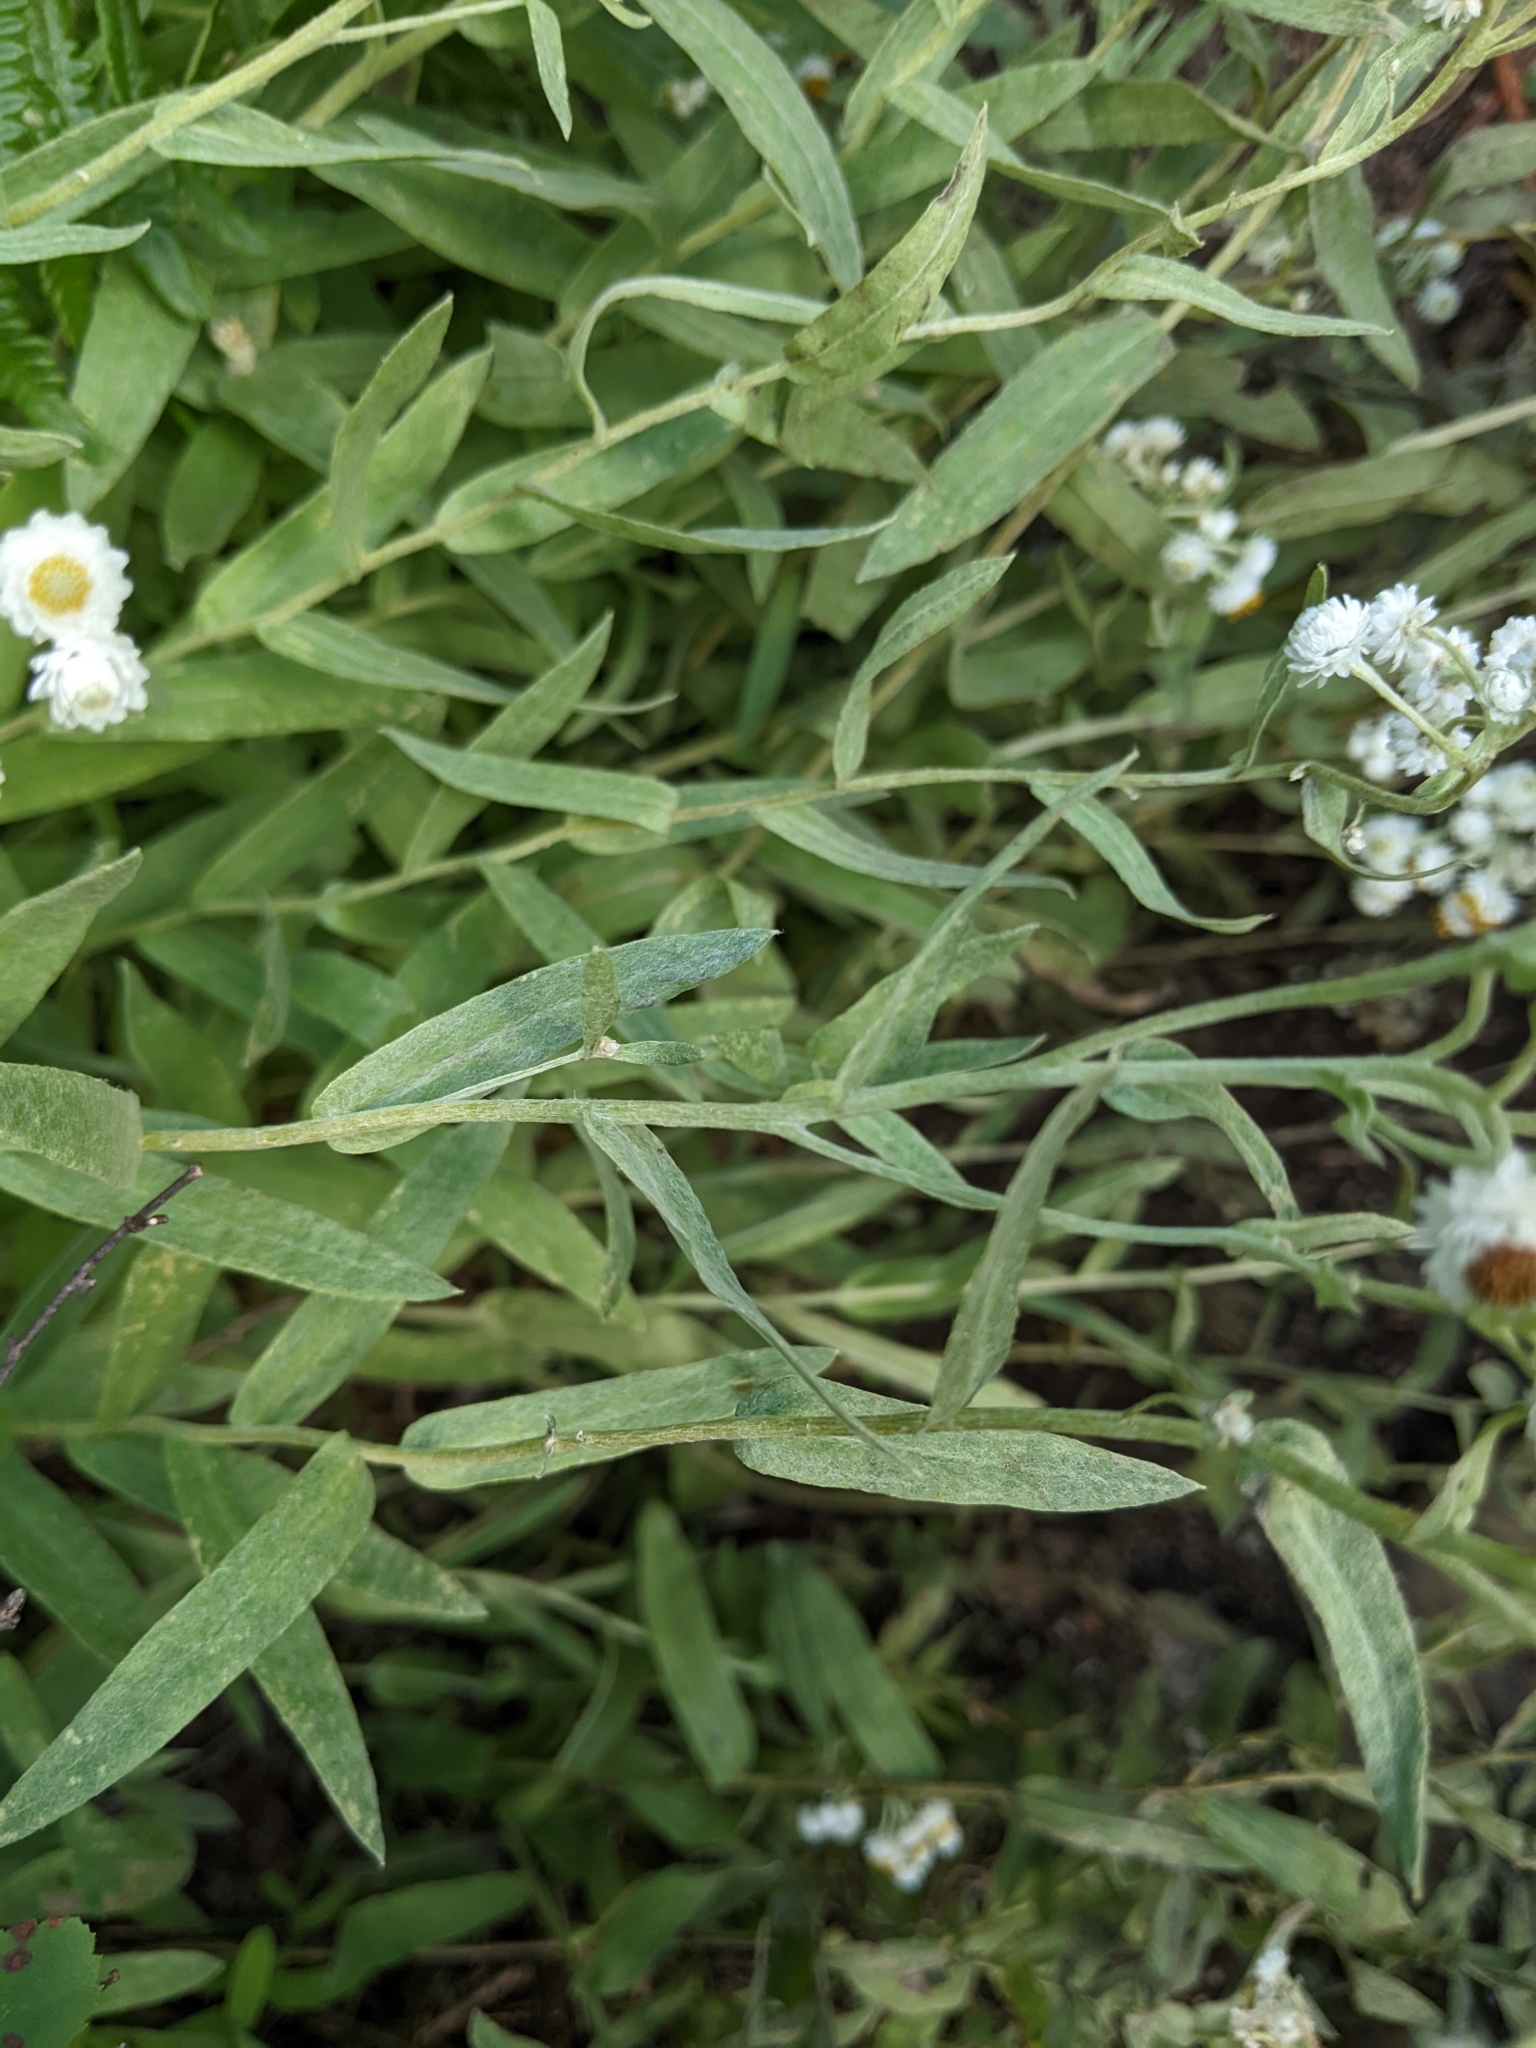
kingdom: Plantae
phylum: Tracheophyta
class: Magnoliopsida
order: Asterales
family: Asteraceae
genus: Anaphalis
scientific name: Anaphalis margaritacea
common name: Pearly everlasting
